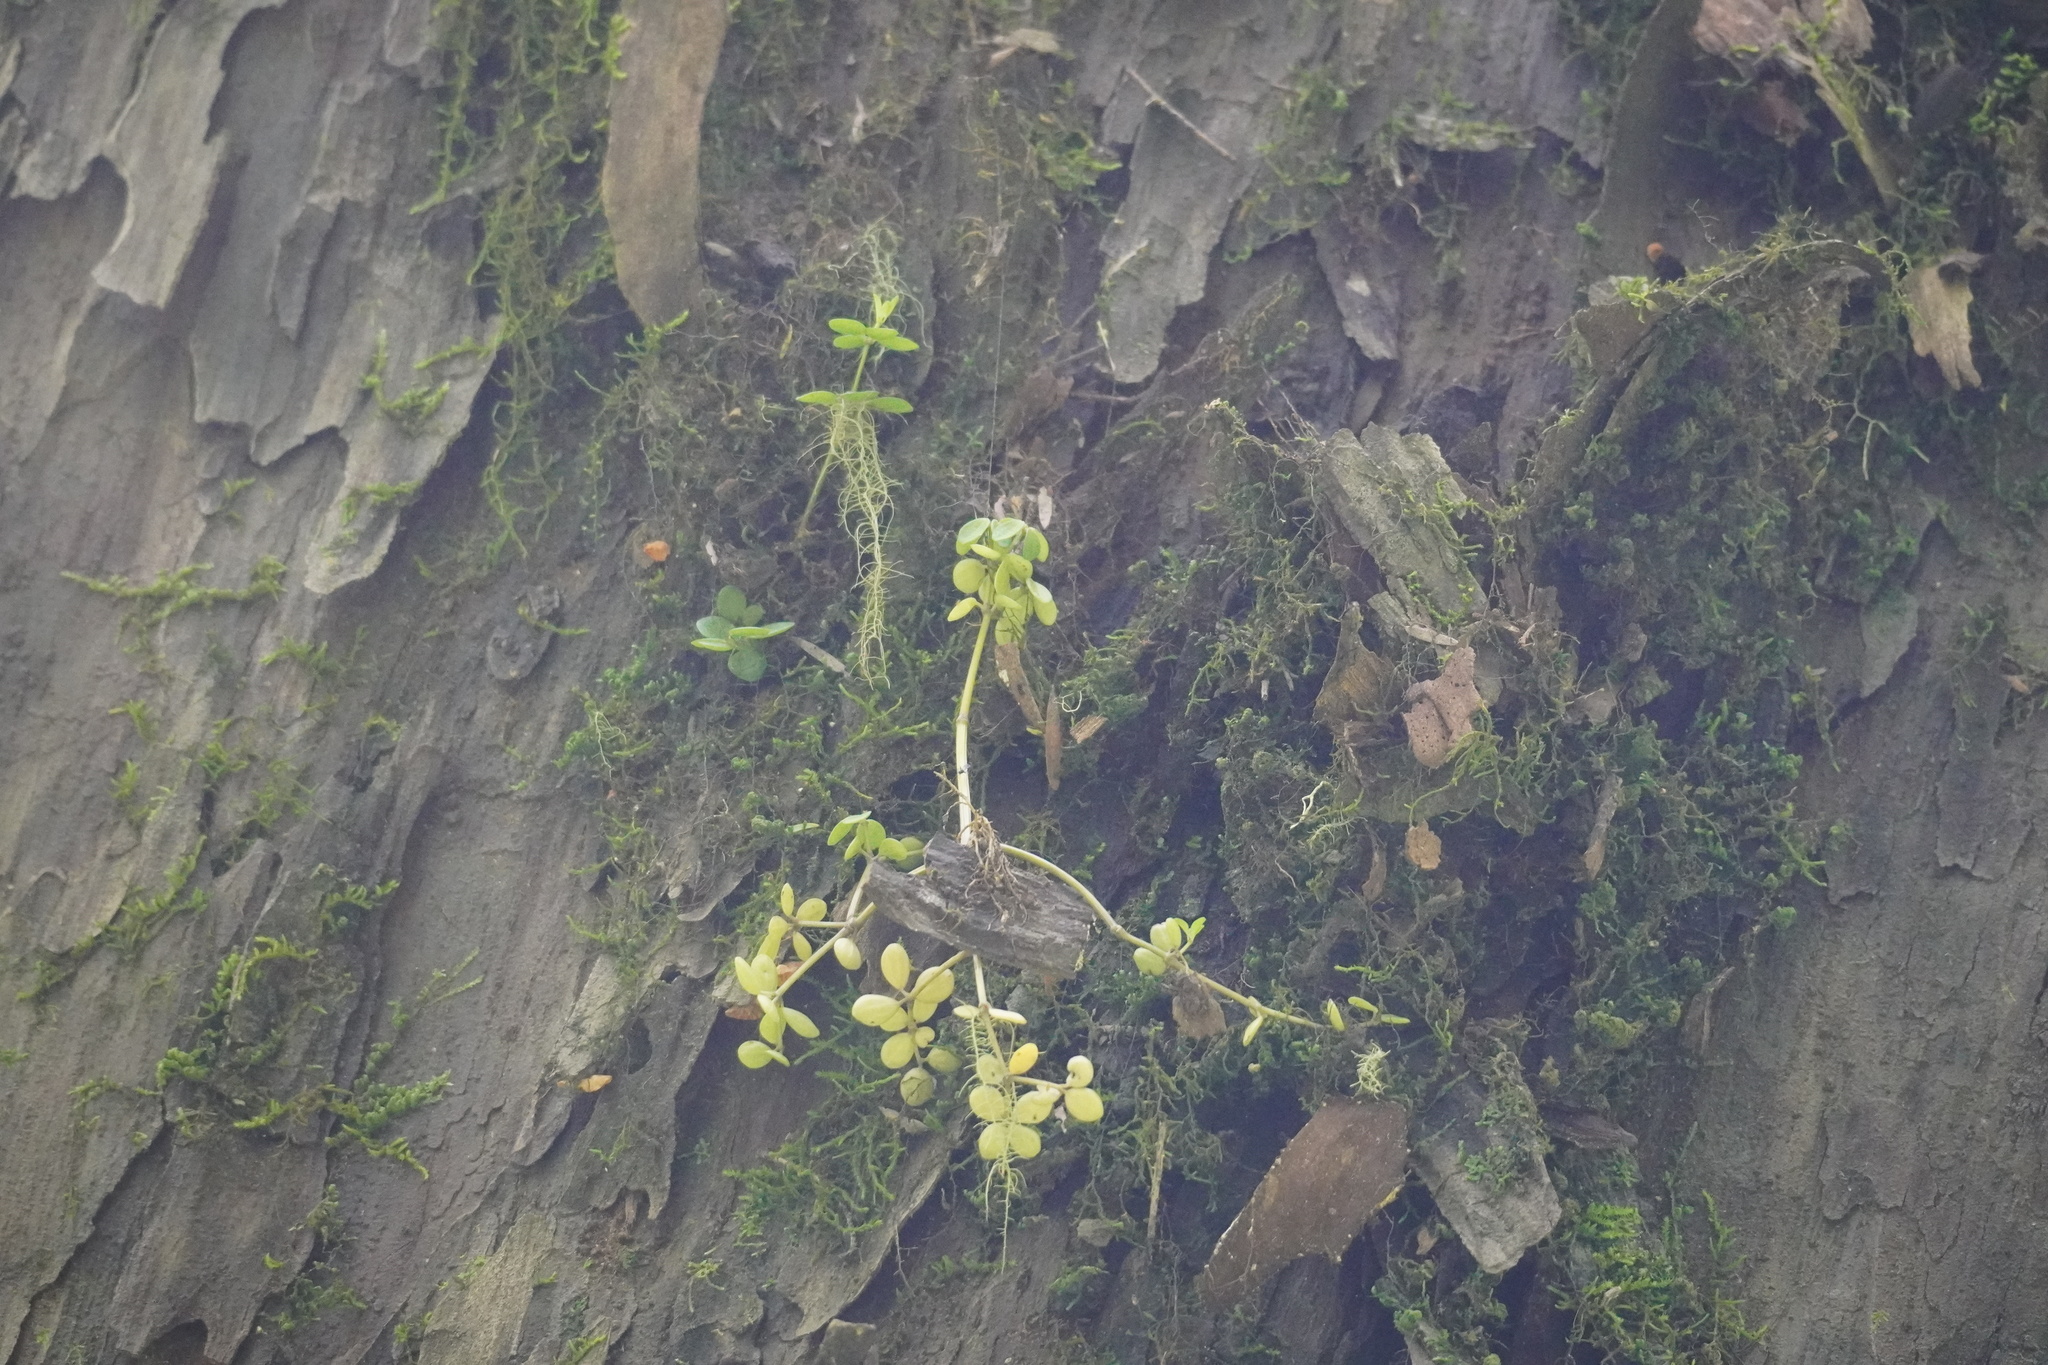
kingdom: Plantae
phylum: Tracheophyta
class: Magnoliopsida
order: Piperales
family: Piperaceae
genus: Peperomia
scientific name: Peperomia tetraphylla
